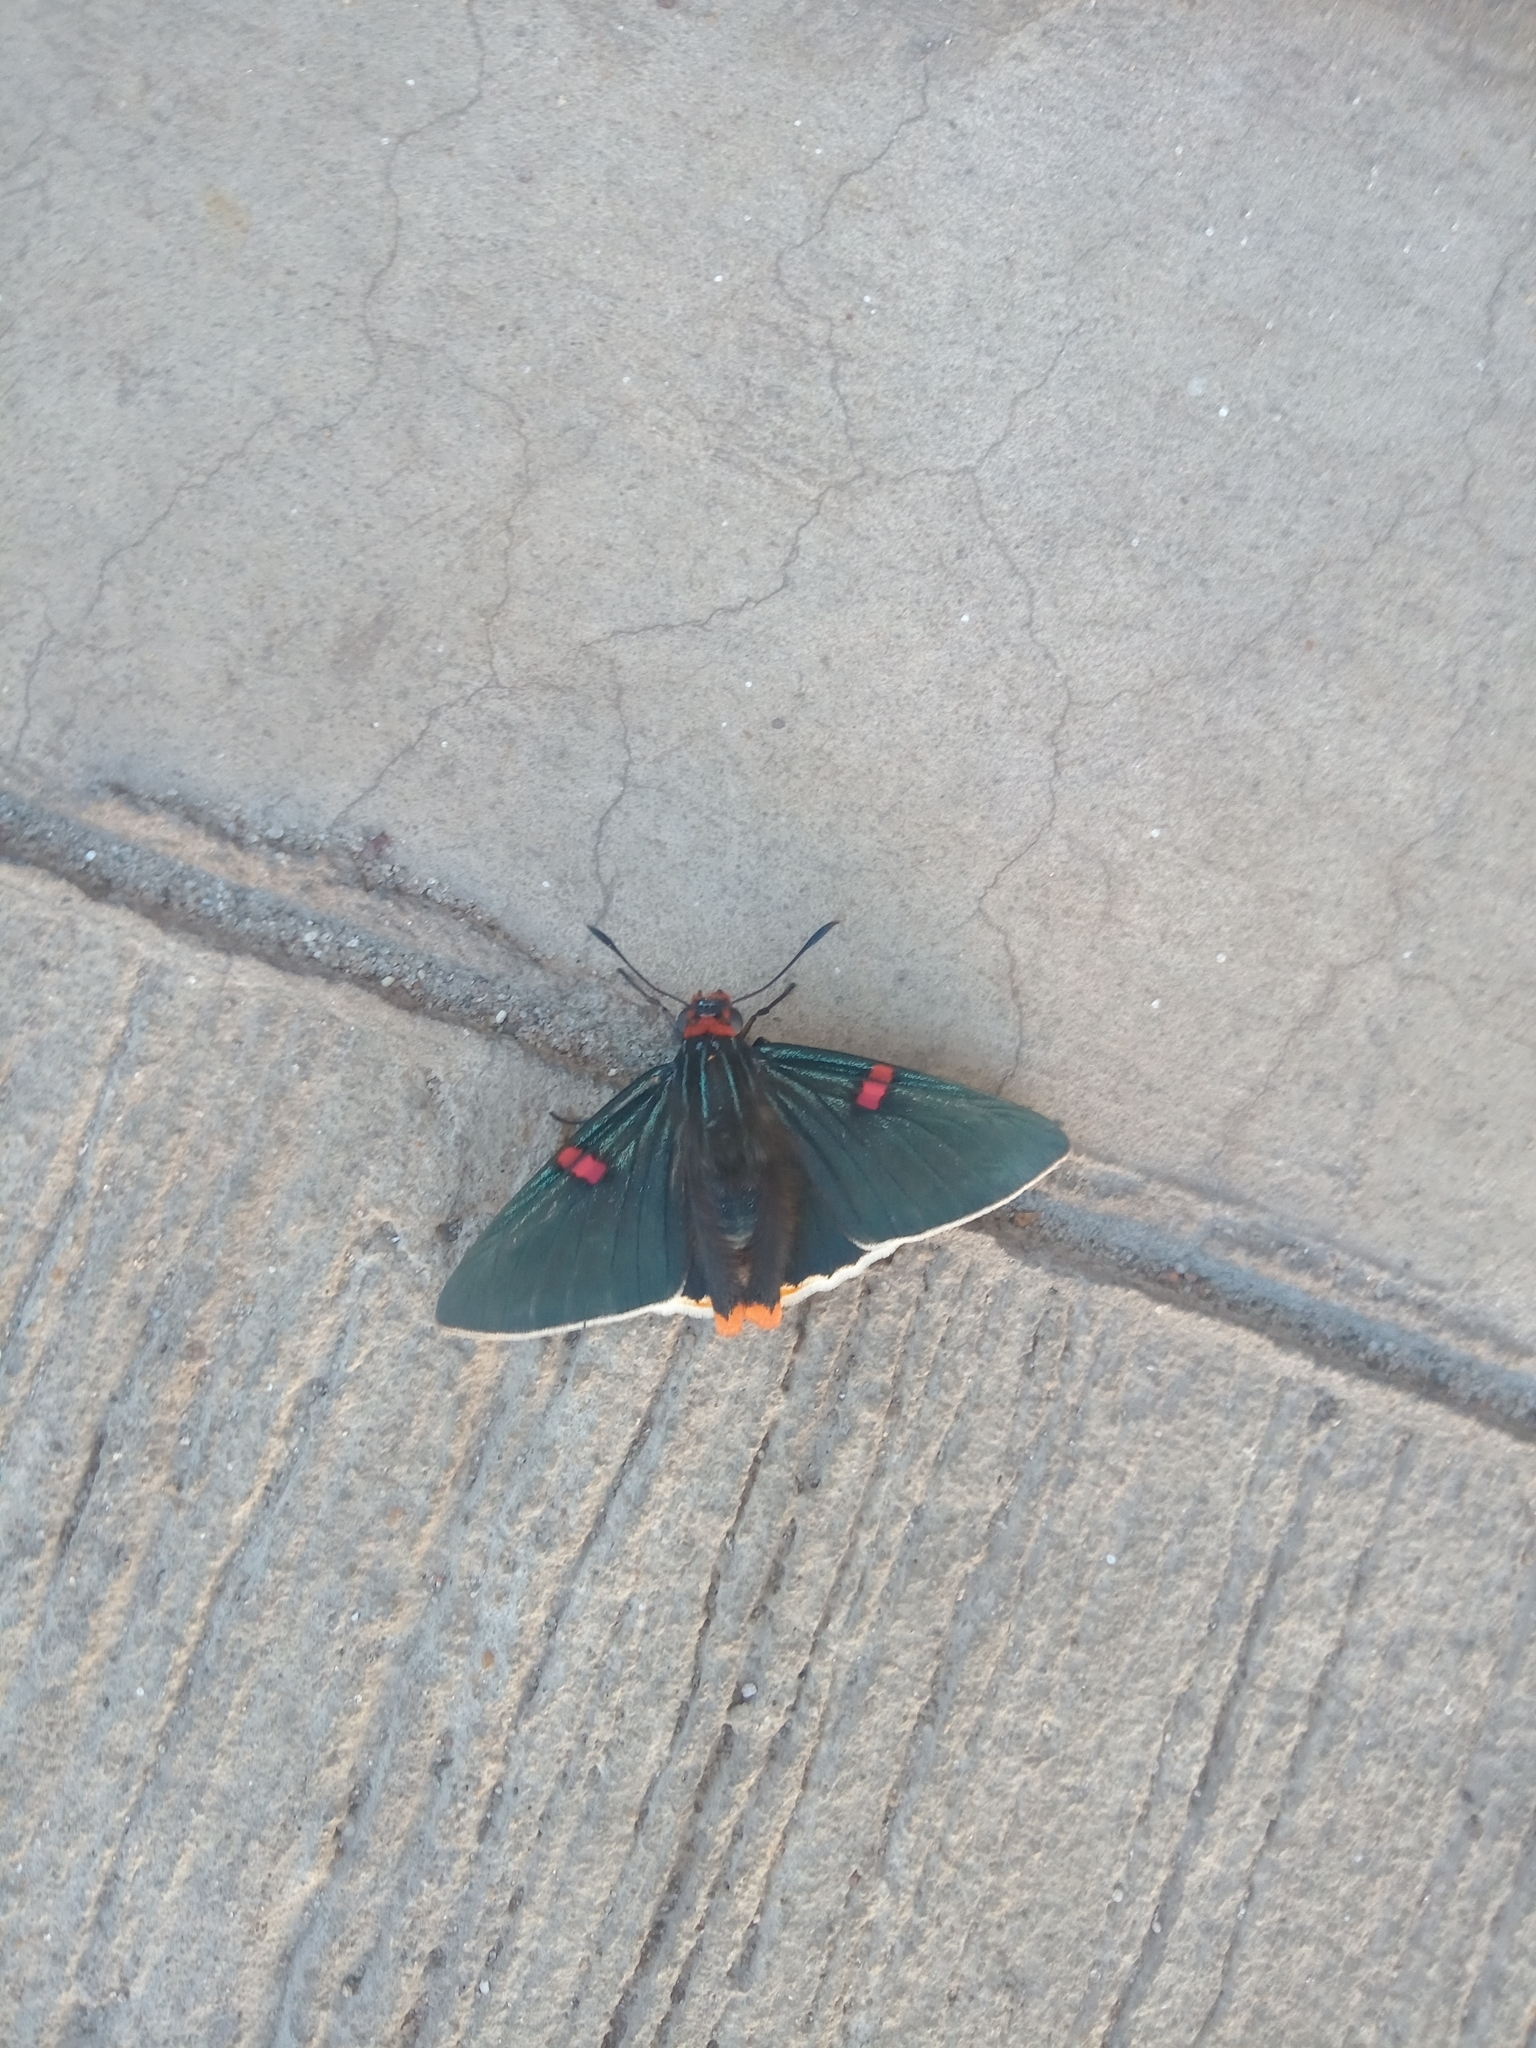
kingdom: Animalia
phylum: Arthropoda
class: Insecta
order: Lepidoptera
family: Hesperiidae
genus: Phocides
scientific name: Phocides polybius
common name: Guava skipper
